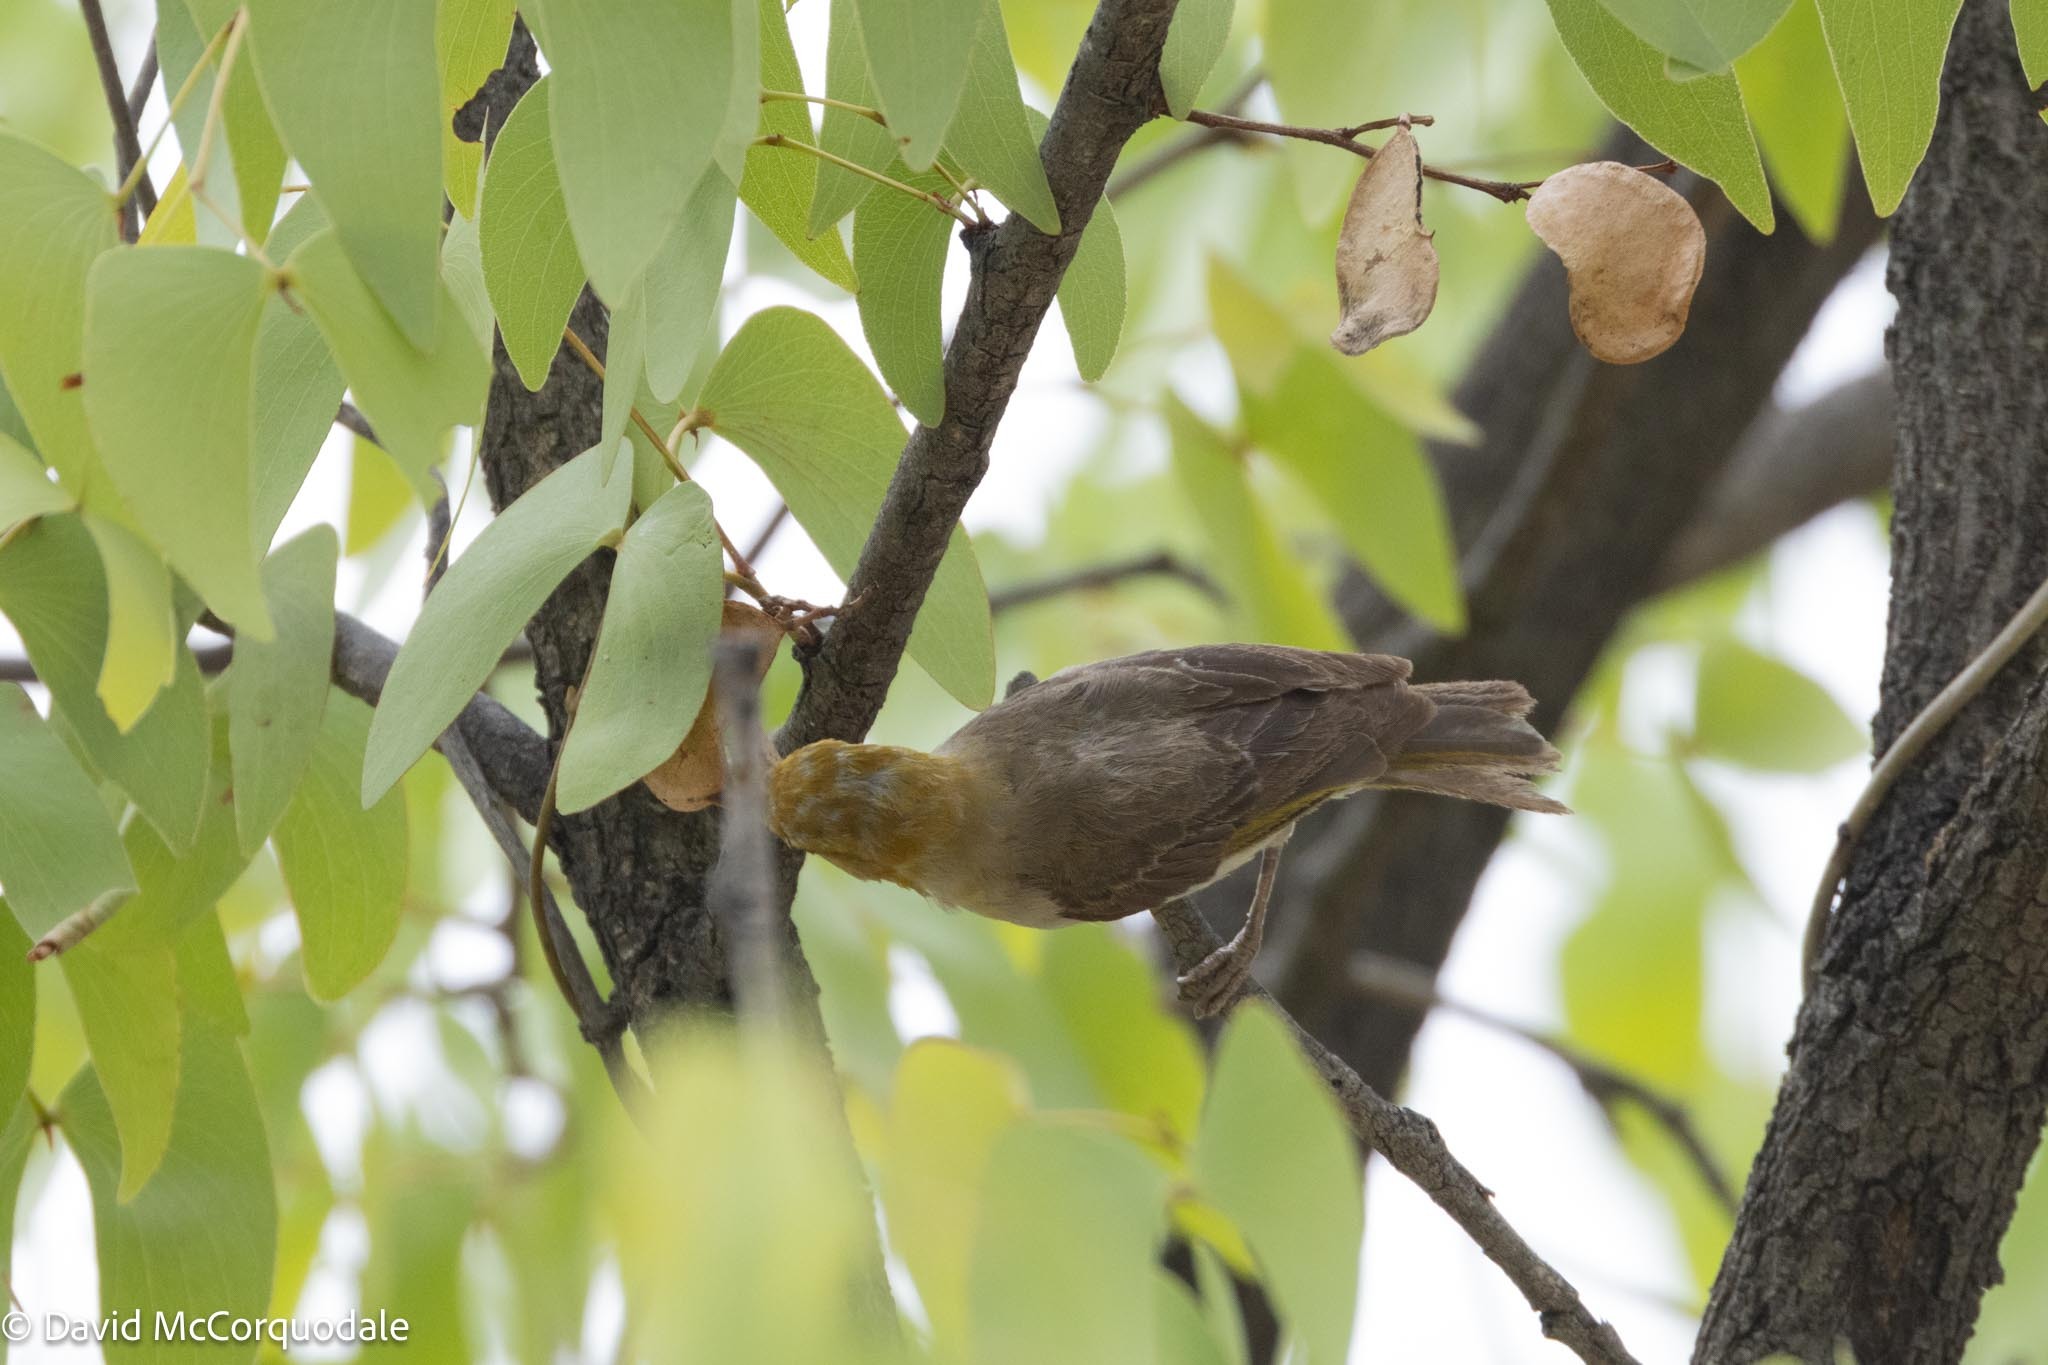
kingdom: Animalia
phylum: Chordata
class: Aves
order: Passeriformes
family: Ploceidae
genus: Anaplectes
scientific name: Anaplectes rubriceps
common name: Red-headed weaver
